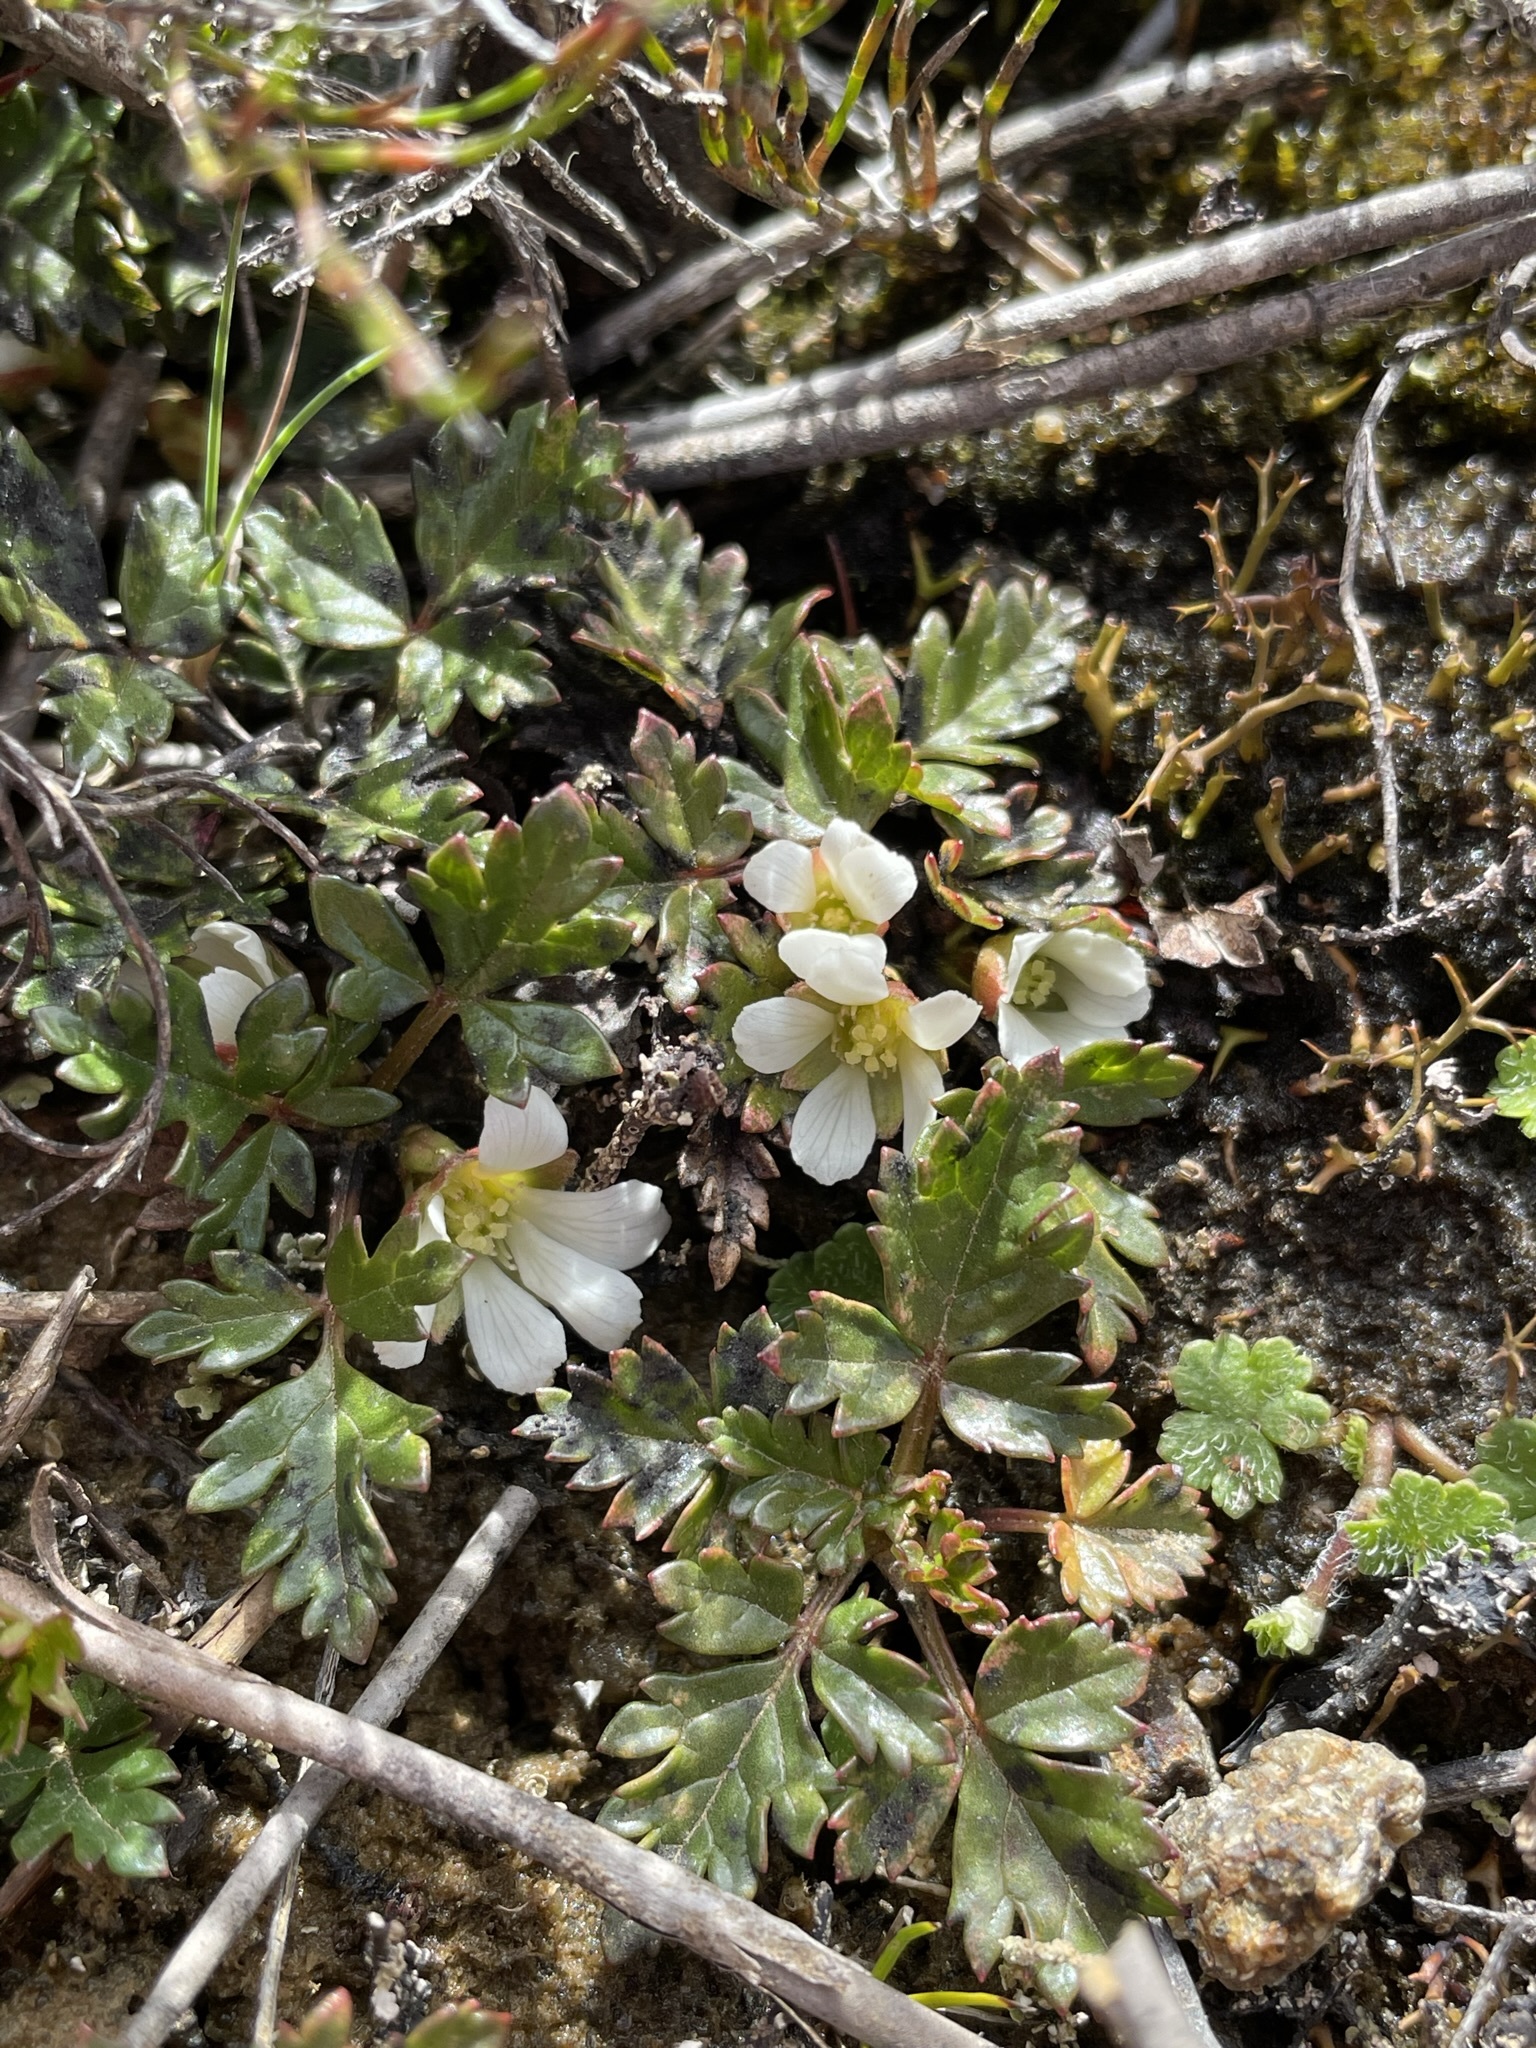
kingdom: Plantae
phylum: Tracheophyta
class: Magnoliopsida
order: Rosales
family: Rosaceae
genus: Rubus
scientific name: Rubus gunnianus
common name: Mountain raspberry
